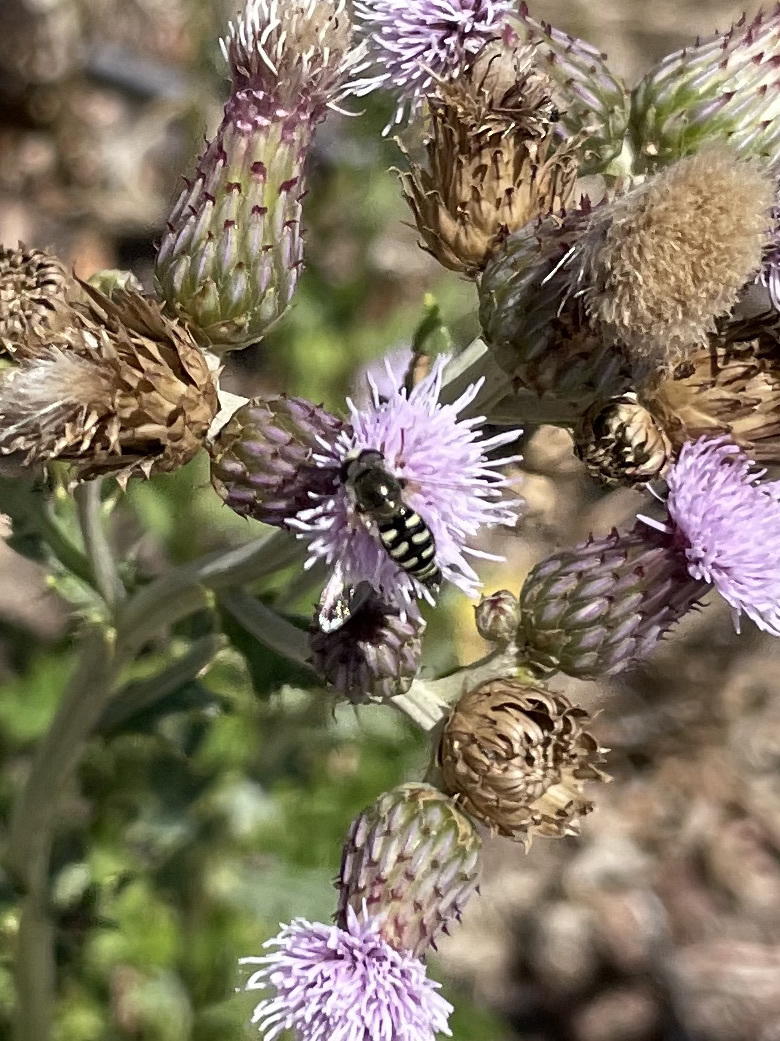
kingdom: Animalia
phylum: Arthropoda
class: Insecta
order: Diptera
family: Syrphidae
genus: Eupeodes
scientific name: Eupeodes volucris
